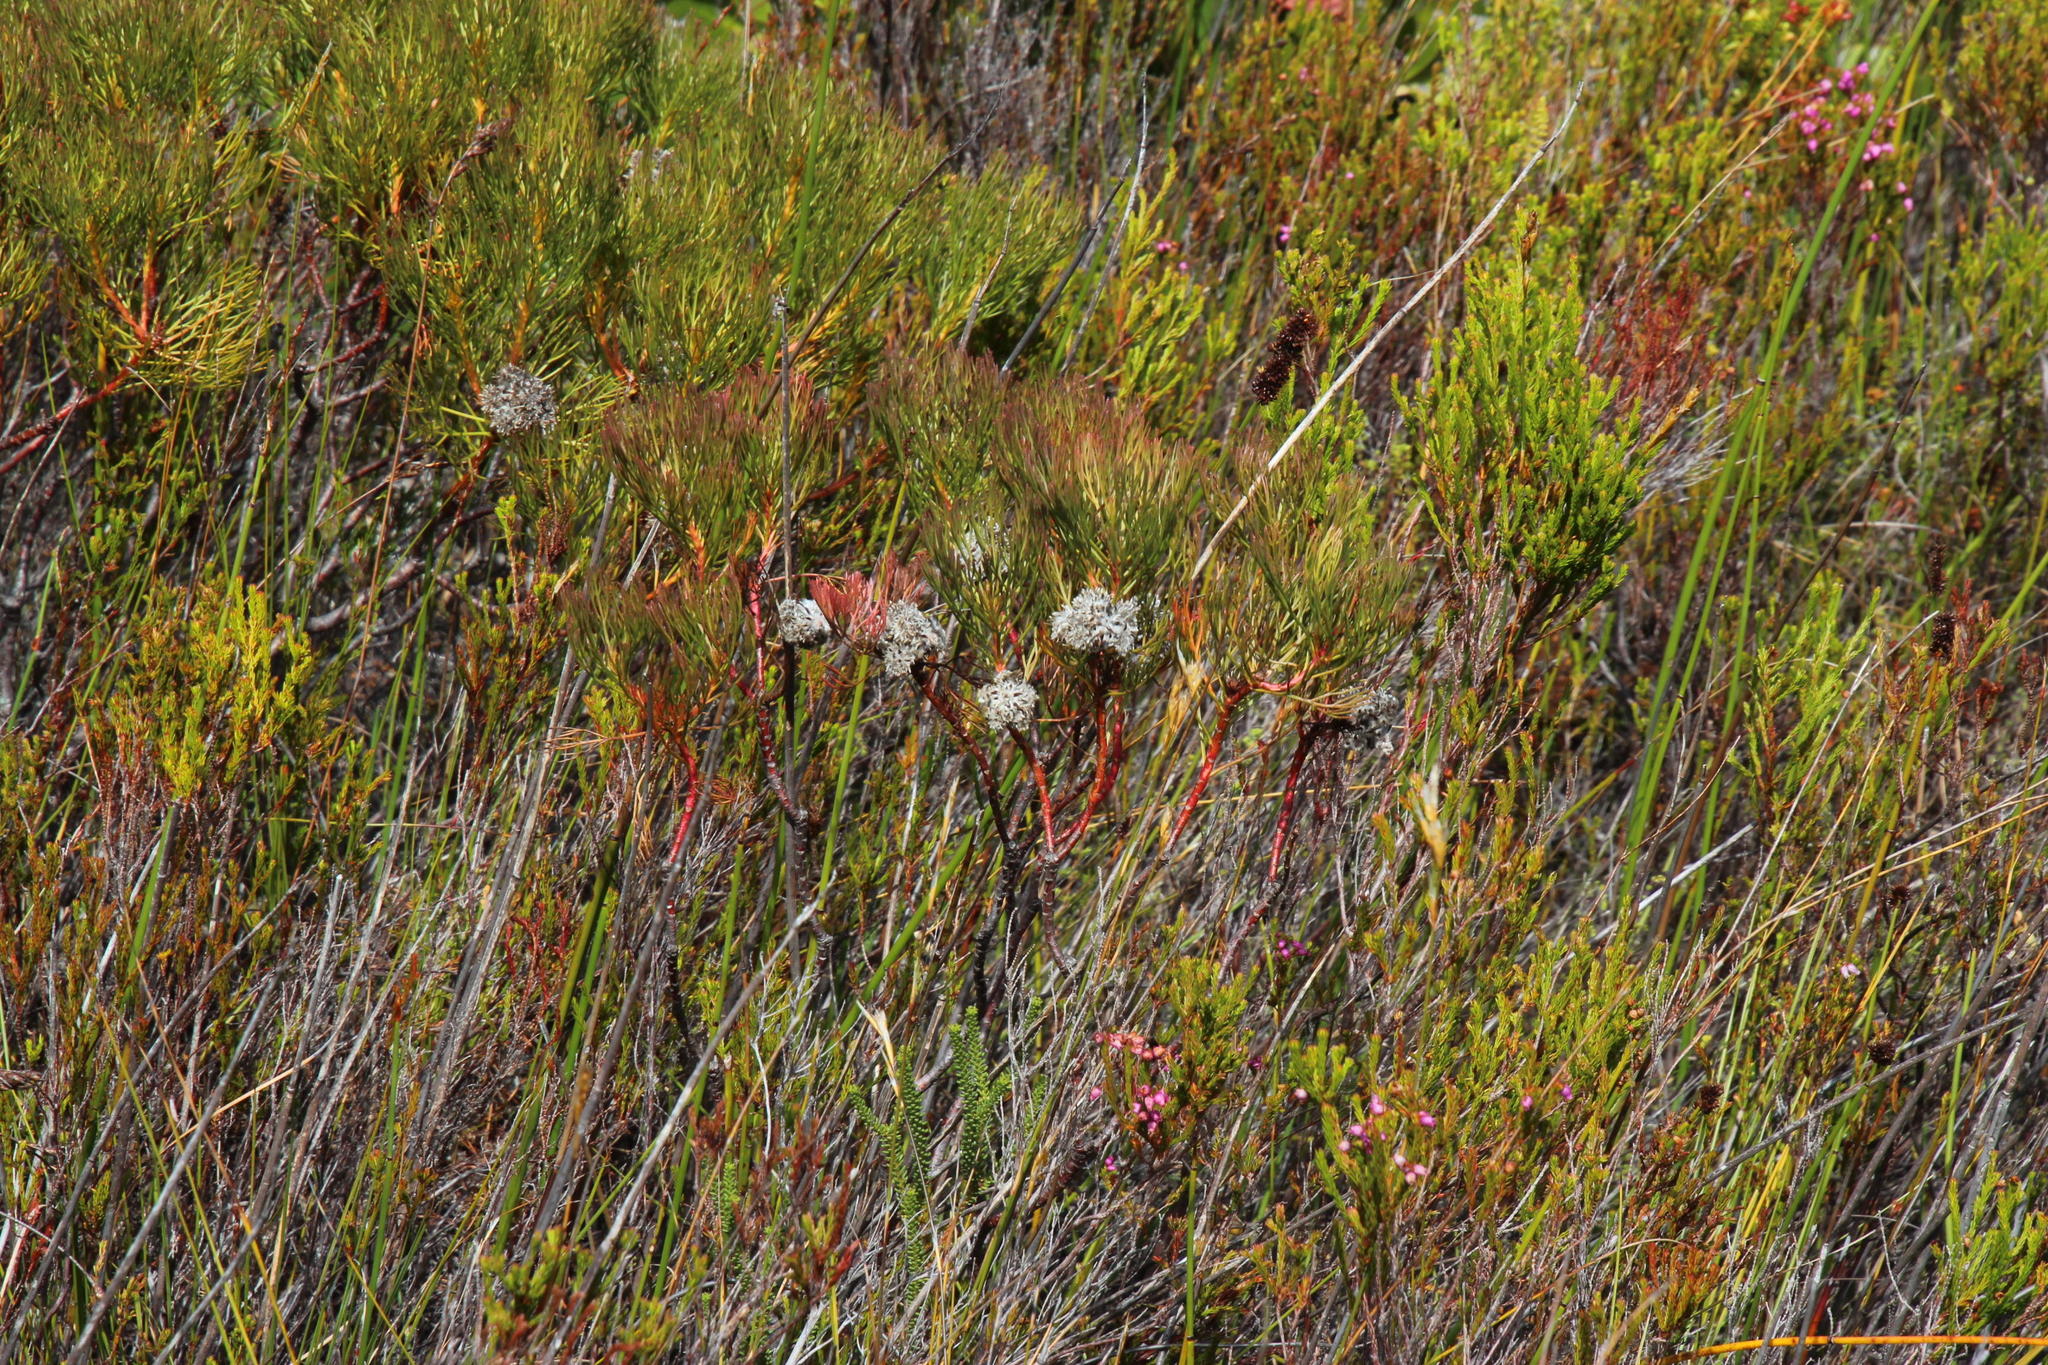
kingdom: Plantae
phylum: Tracheophyta
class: Magnoliopsida
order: Proteales
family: Proteaceae
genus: Serruria
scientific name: Serruria glomerata
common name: Cluster spiderhead
